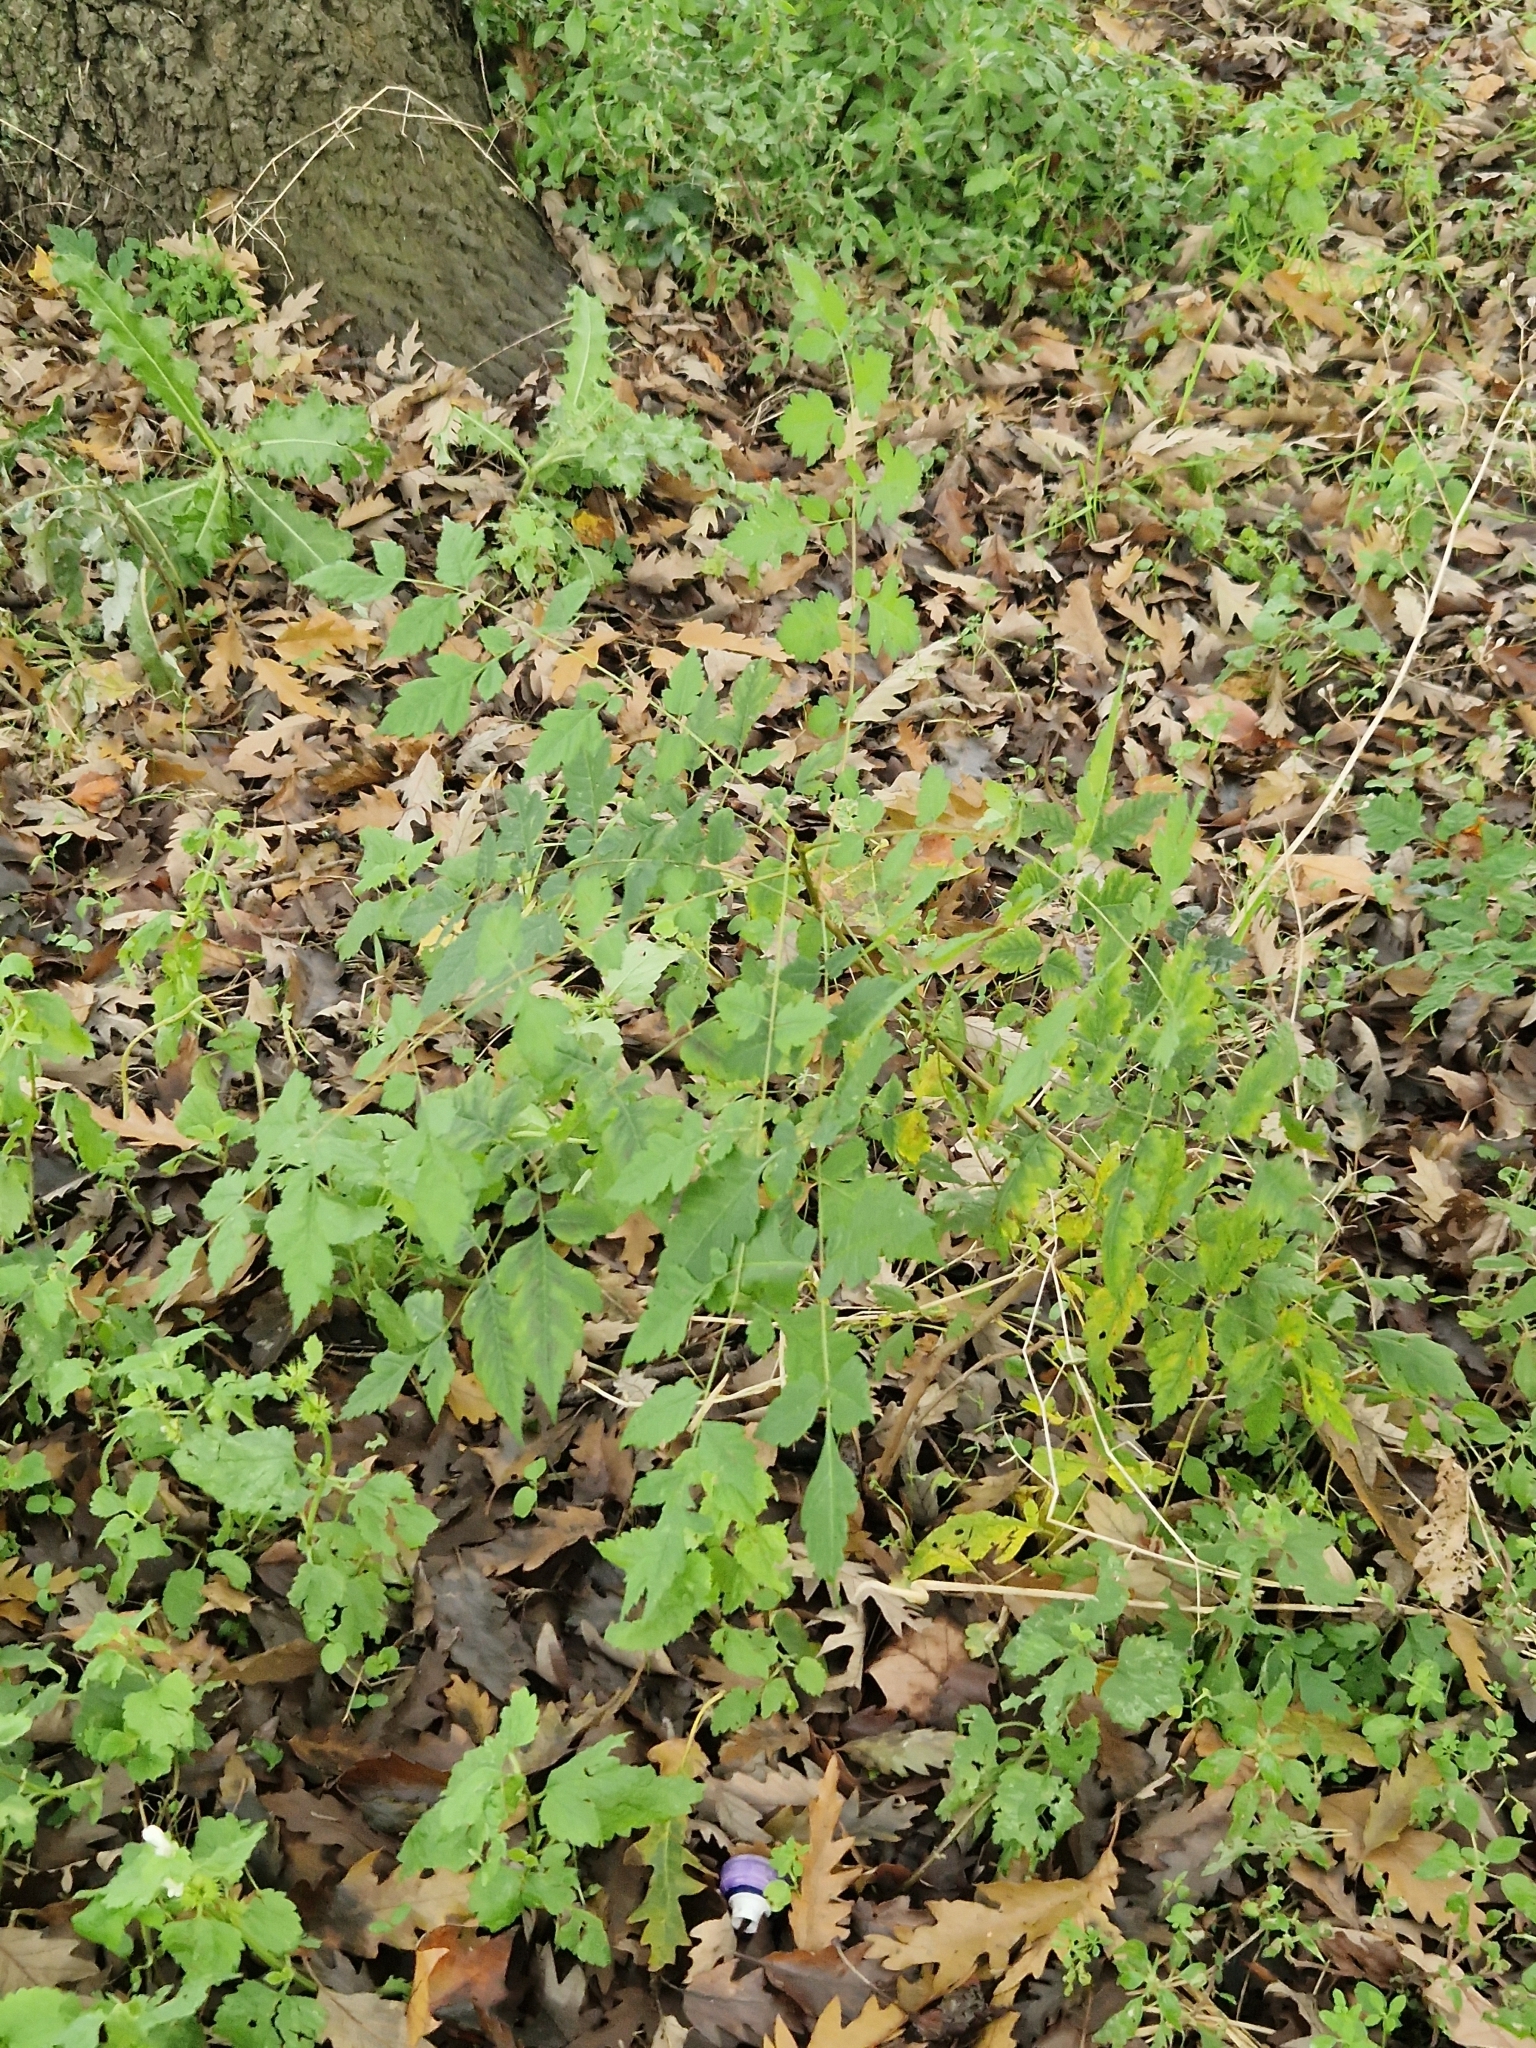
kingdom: Plantae
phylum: Tracheophyta
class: Magnoliopsida
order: Sapindales
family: Sapindaceae
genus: Koelreuteria
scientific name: Koelreuteria paniculata
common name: Pride-of-india
